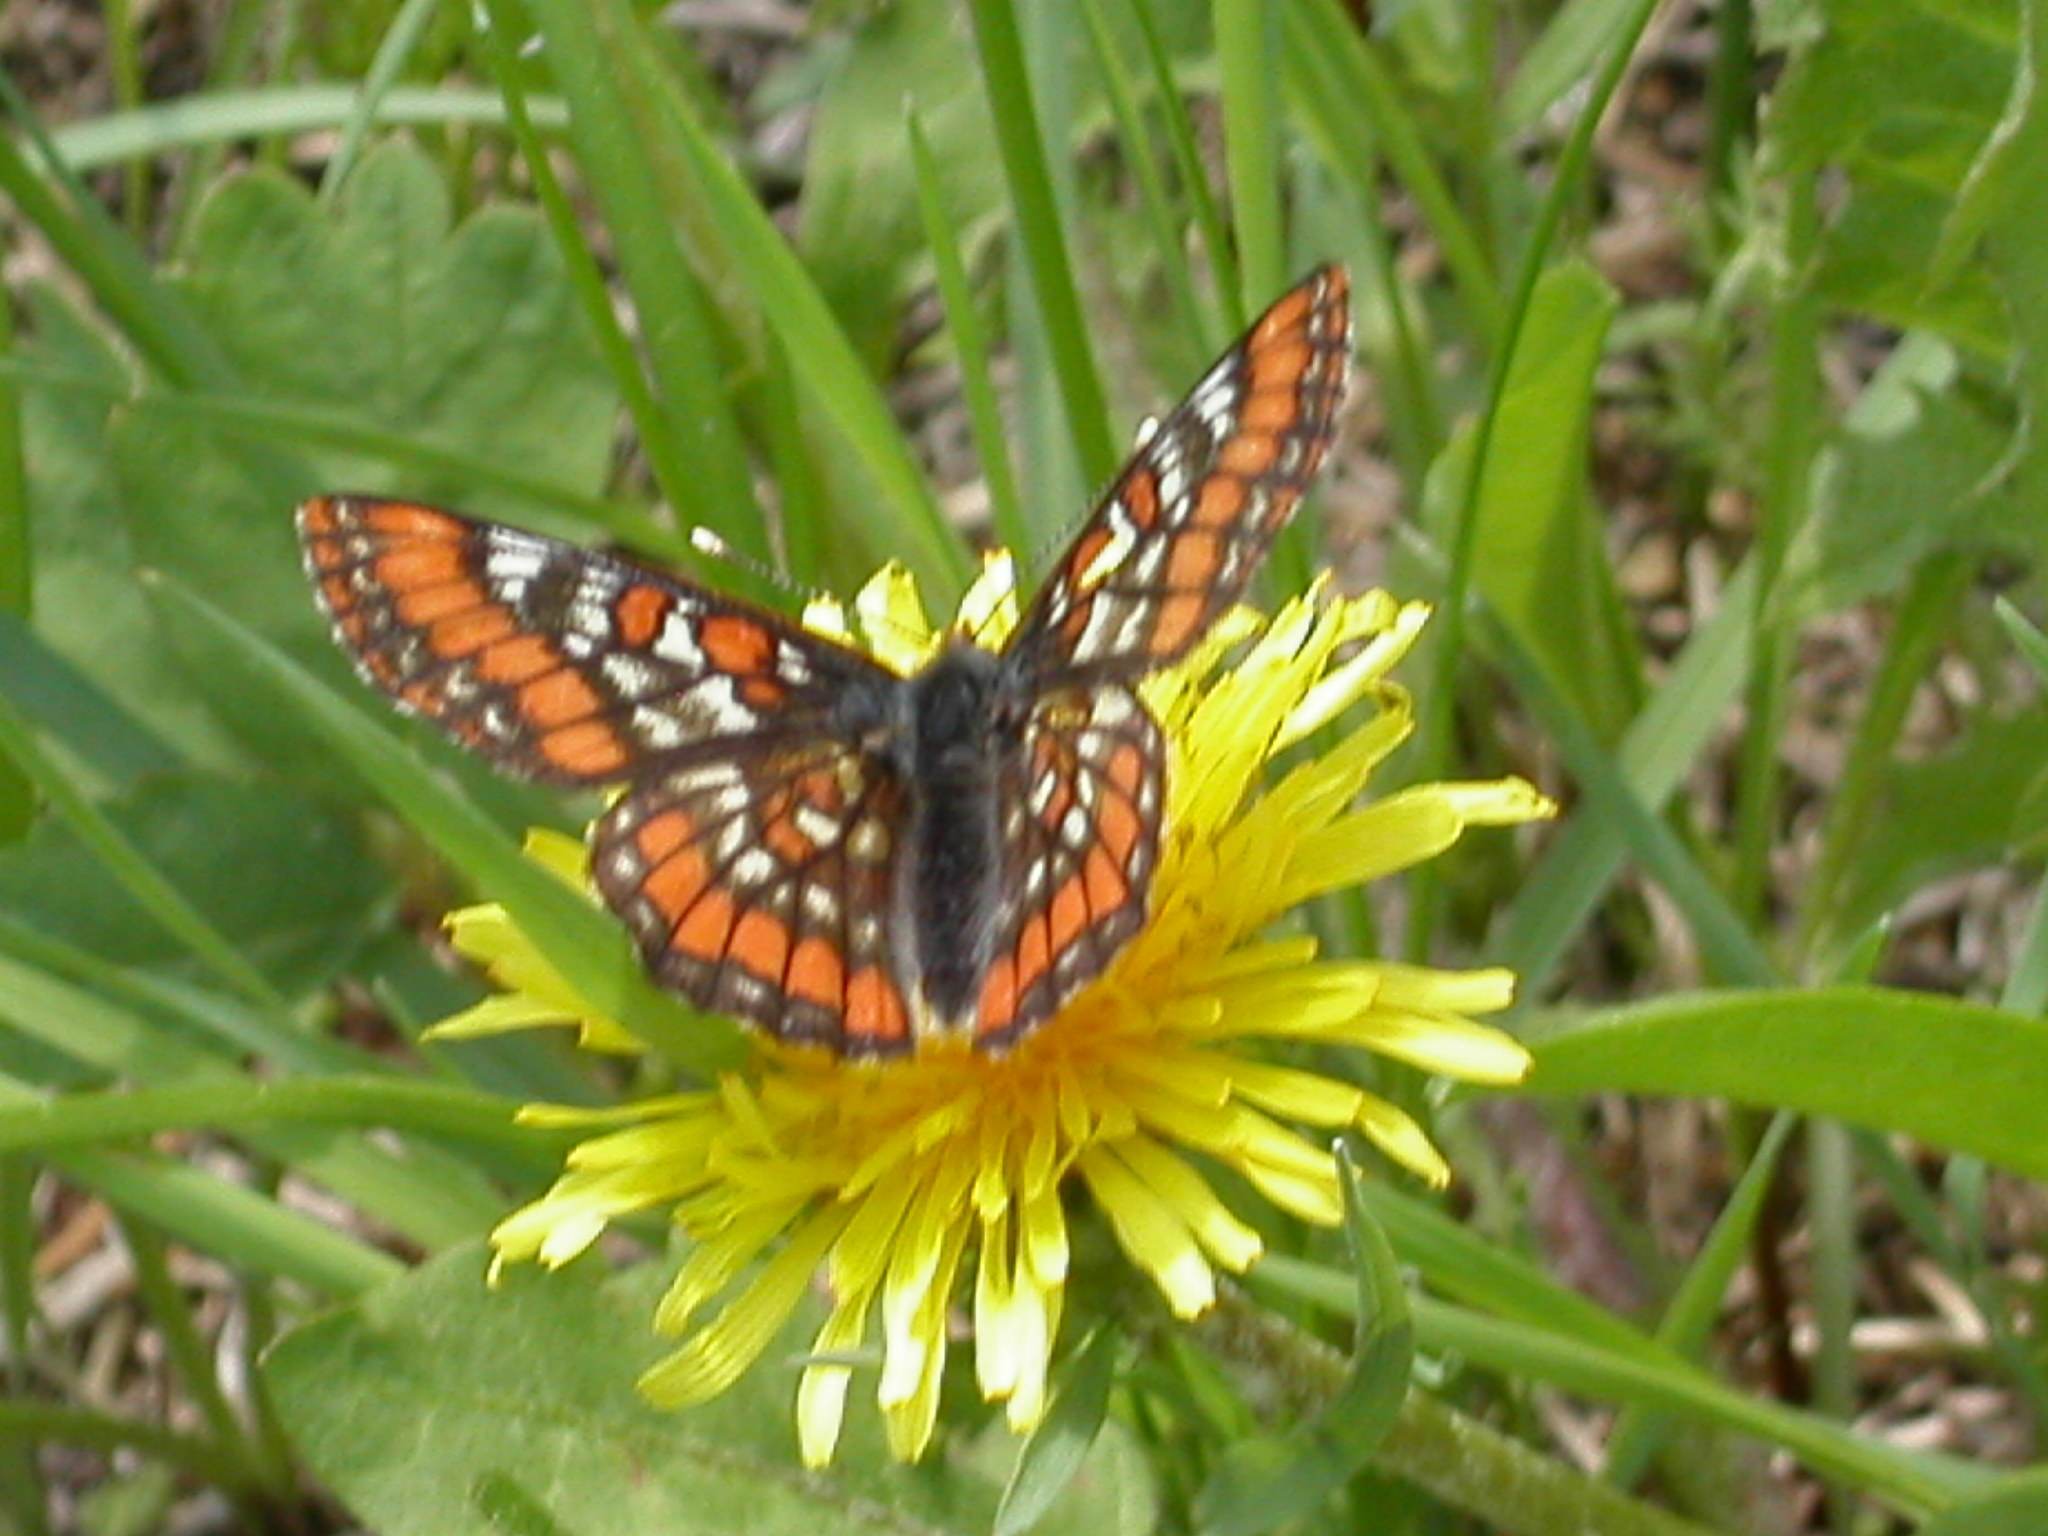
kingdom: Animalia
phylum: Arthropoda
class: Insecta
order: Lepidoptera
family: Nymphalidae
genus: Hypodryas
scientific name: Hypodryas gillettii
